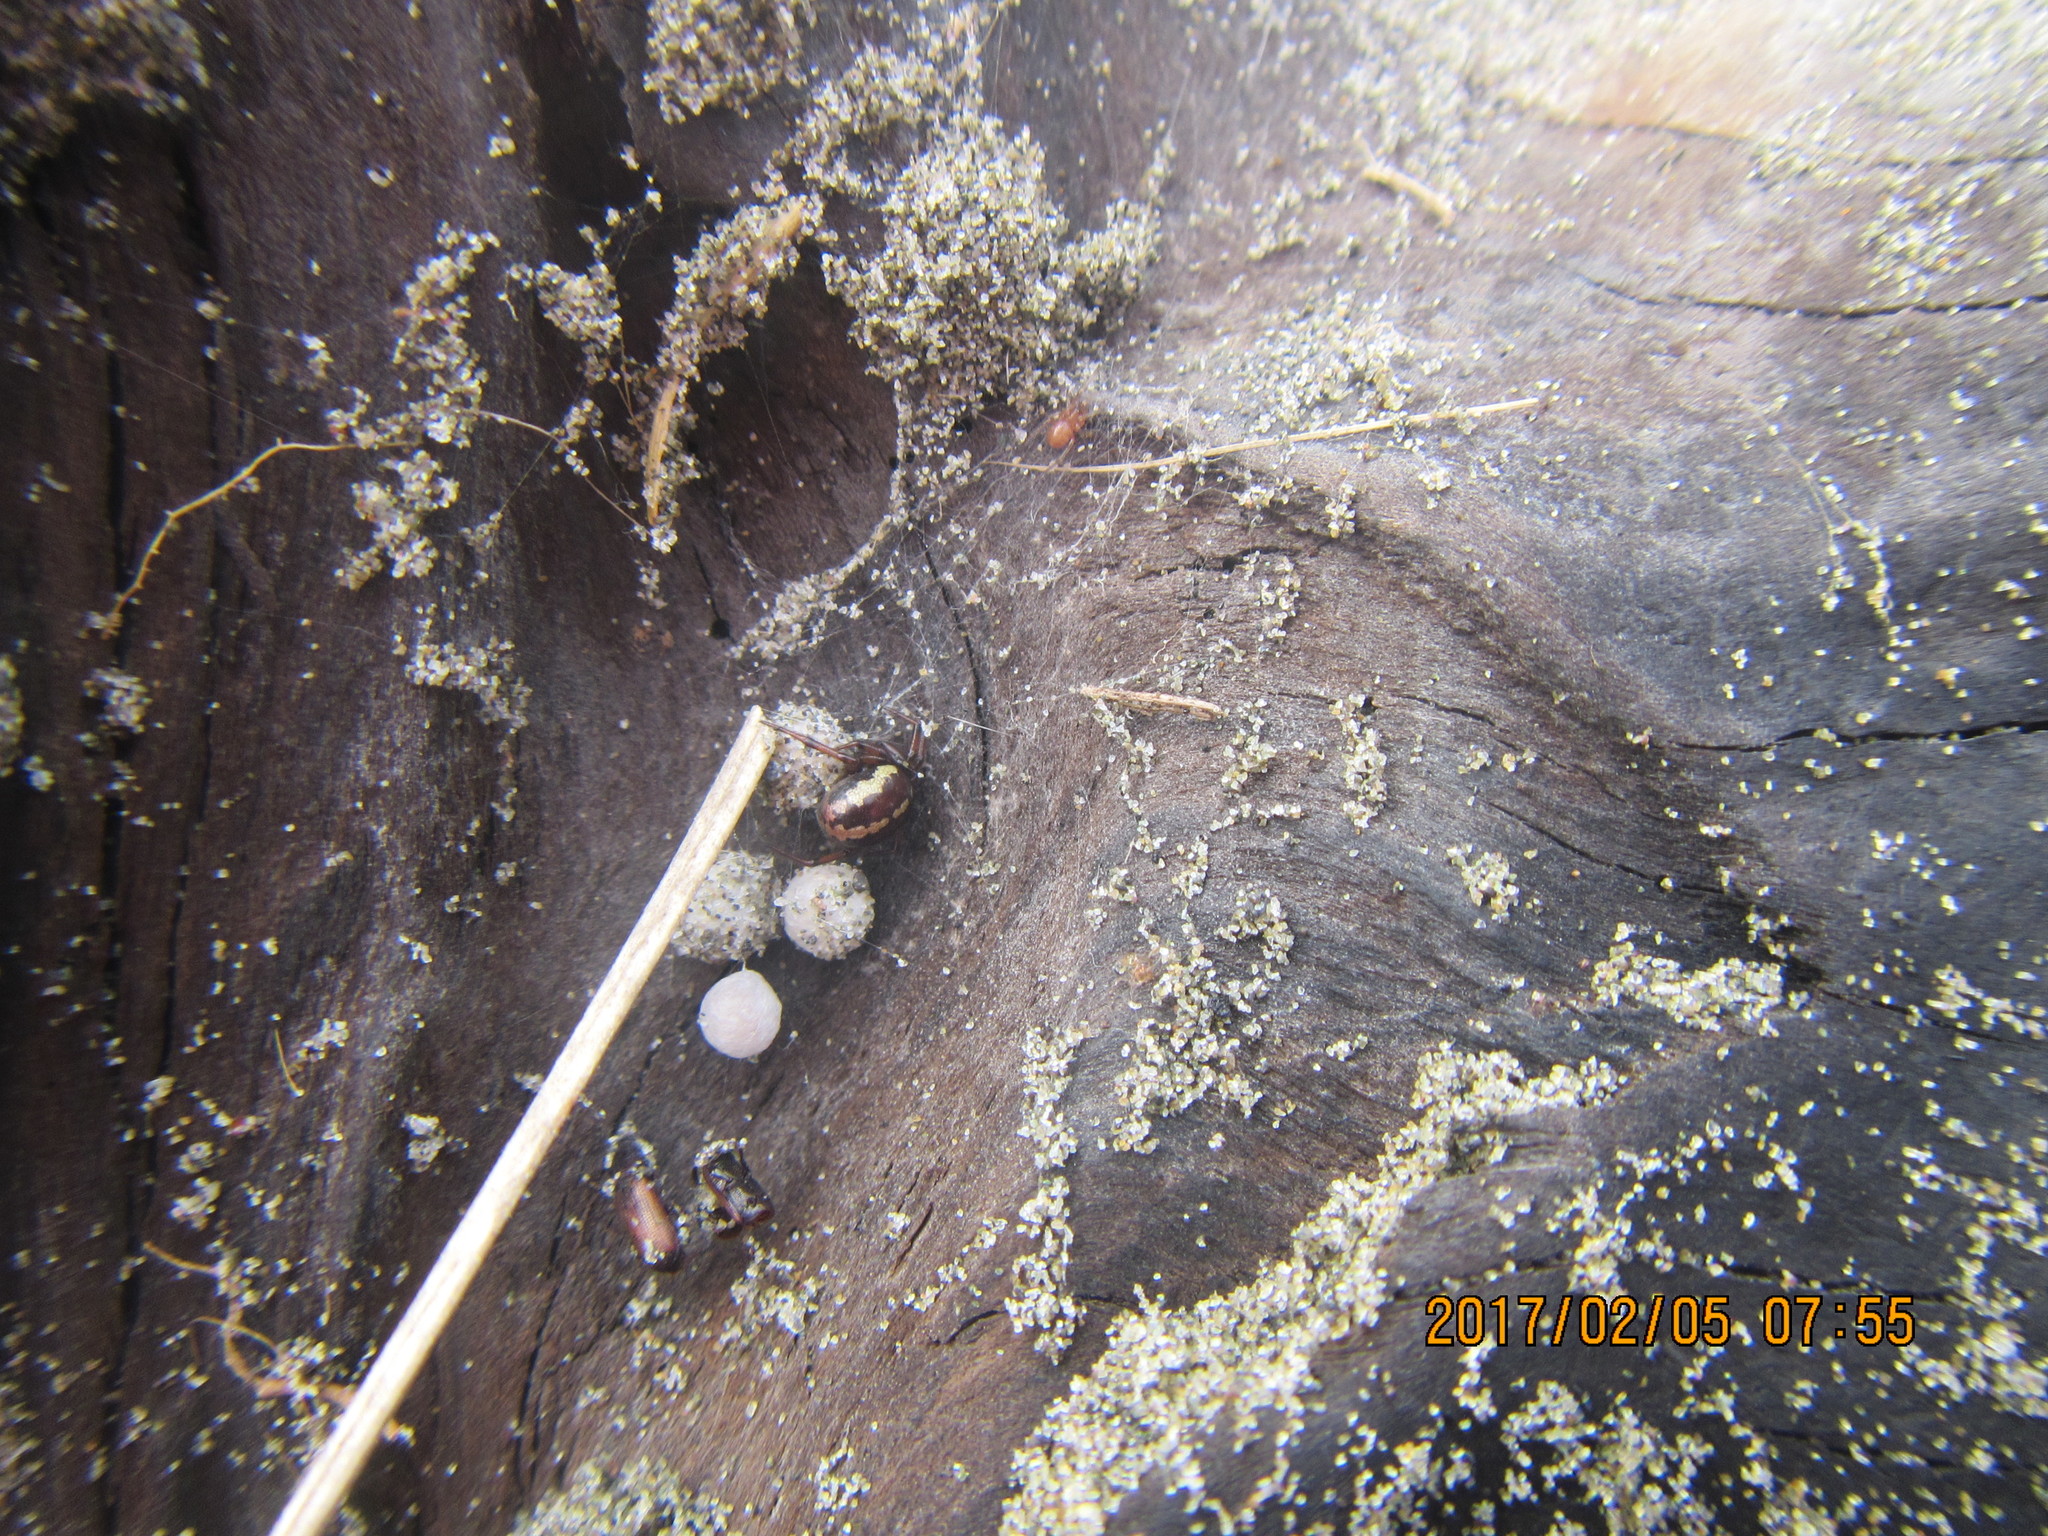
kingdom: Animalia
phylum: Arthropoda
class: Arachnida
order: Araneae
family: Theridiidae
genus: Steatoda
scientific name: Steatoda lepida
